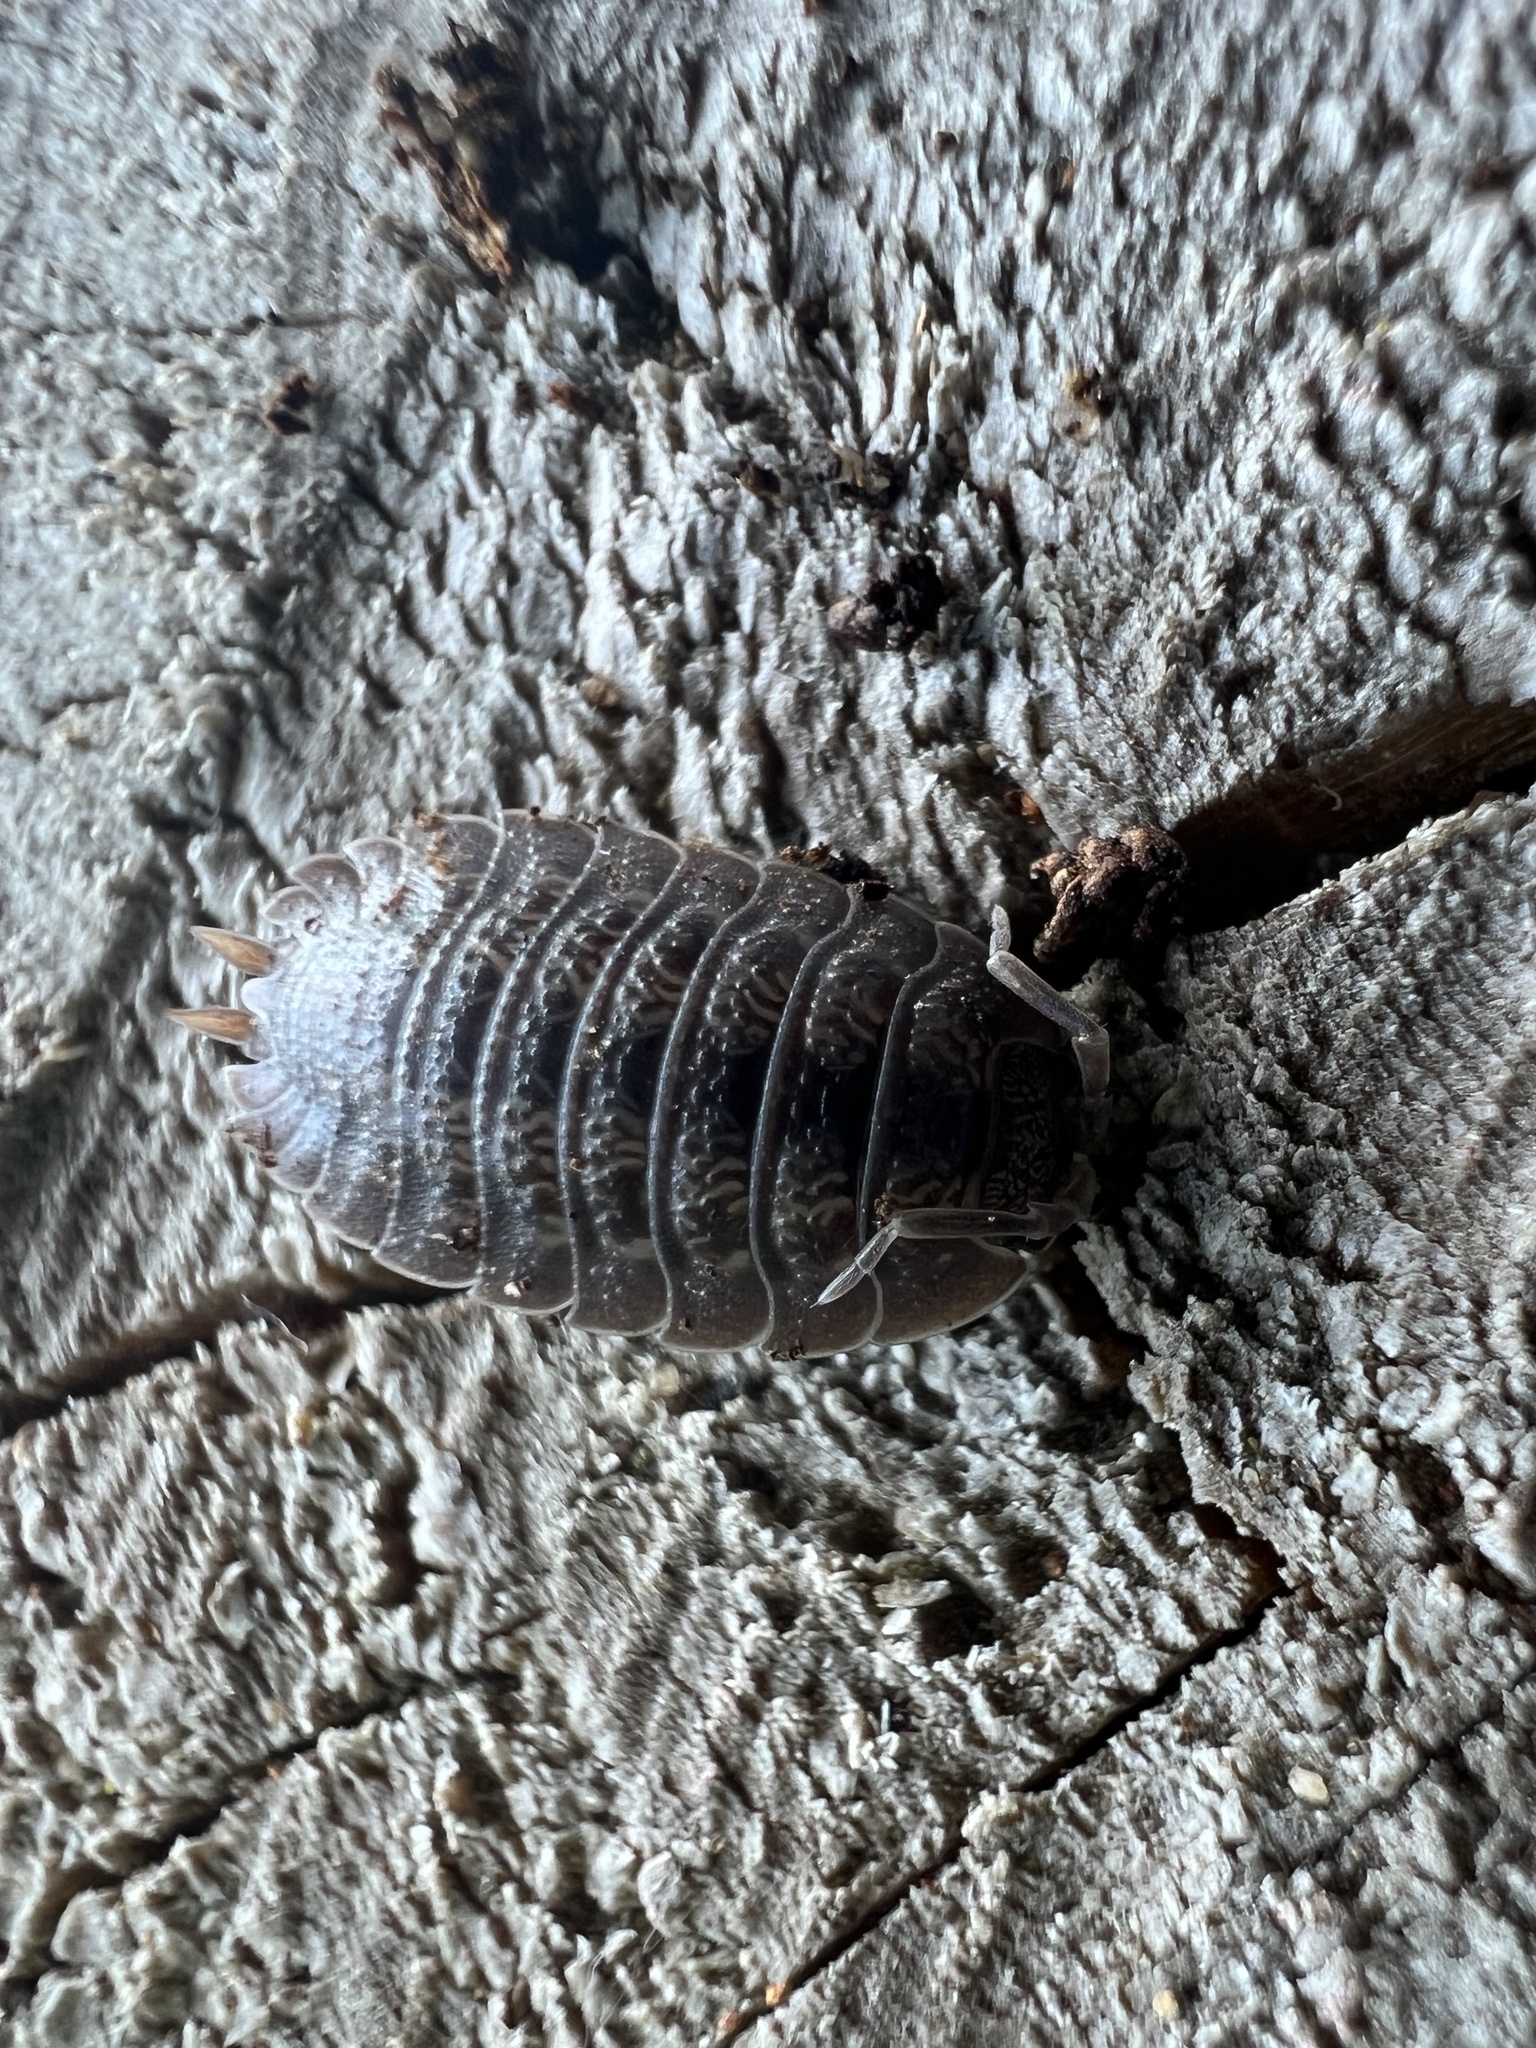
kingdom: Animalia
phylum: Arthropoda
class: Malacostraca
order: Isopoda
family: Porcellionidae
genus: Porcellio
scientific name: Porcellio dilatatus
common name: Isopod
